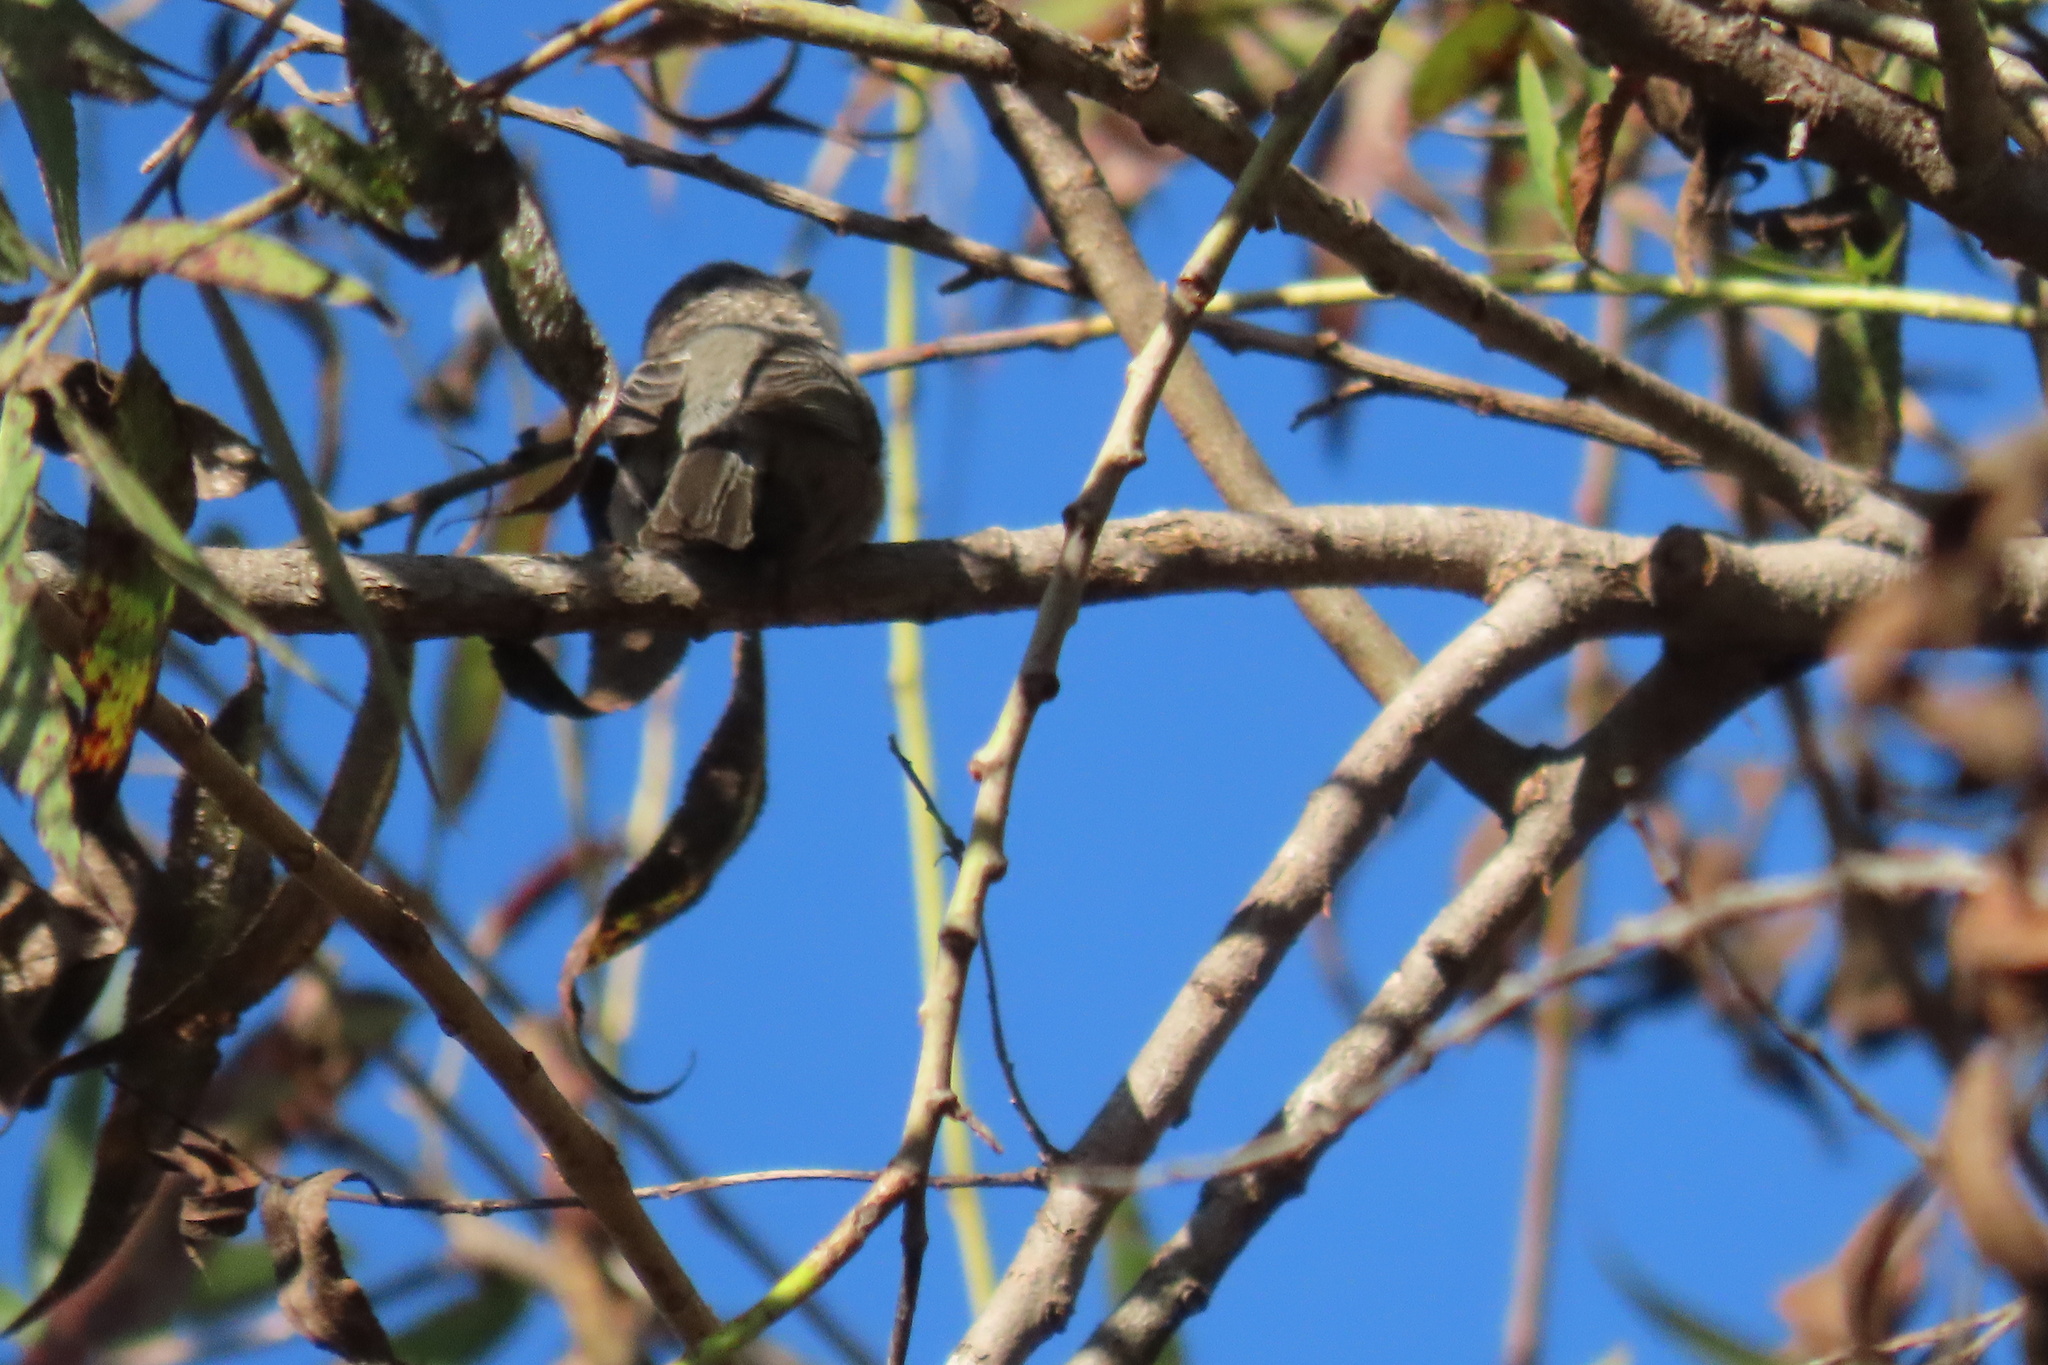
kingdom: Animalia
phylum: Chordata
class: Aves
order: Passeriformes
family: Aegithalidae
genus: Psaltriparus
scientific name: Psaltriparus minimus
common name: American bushtit
